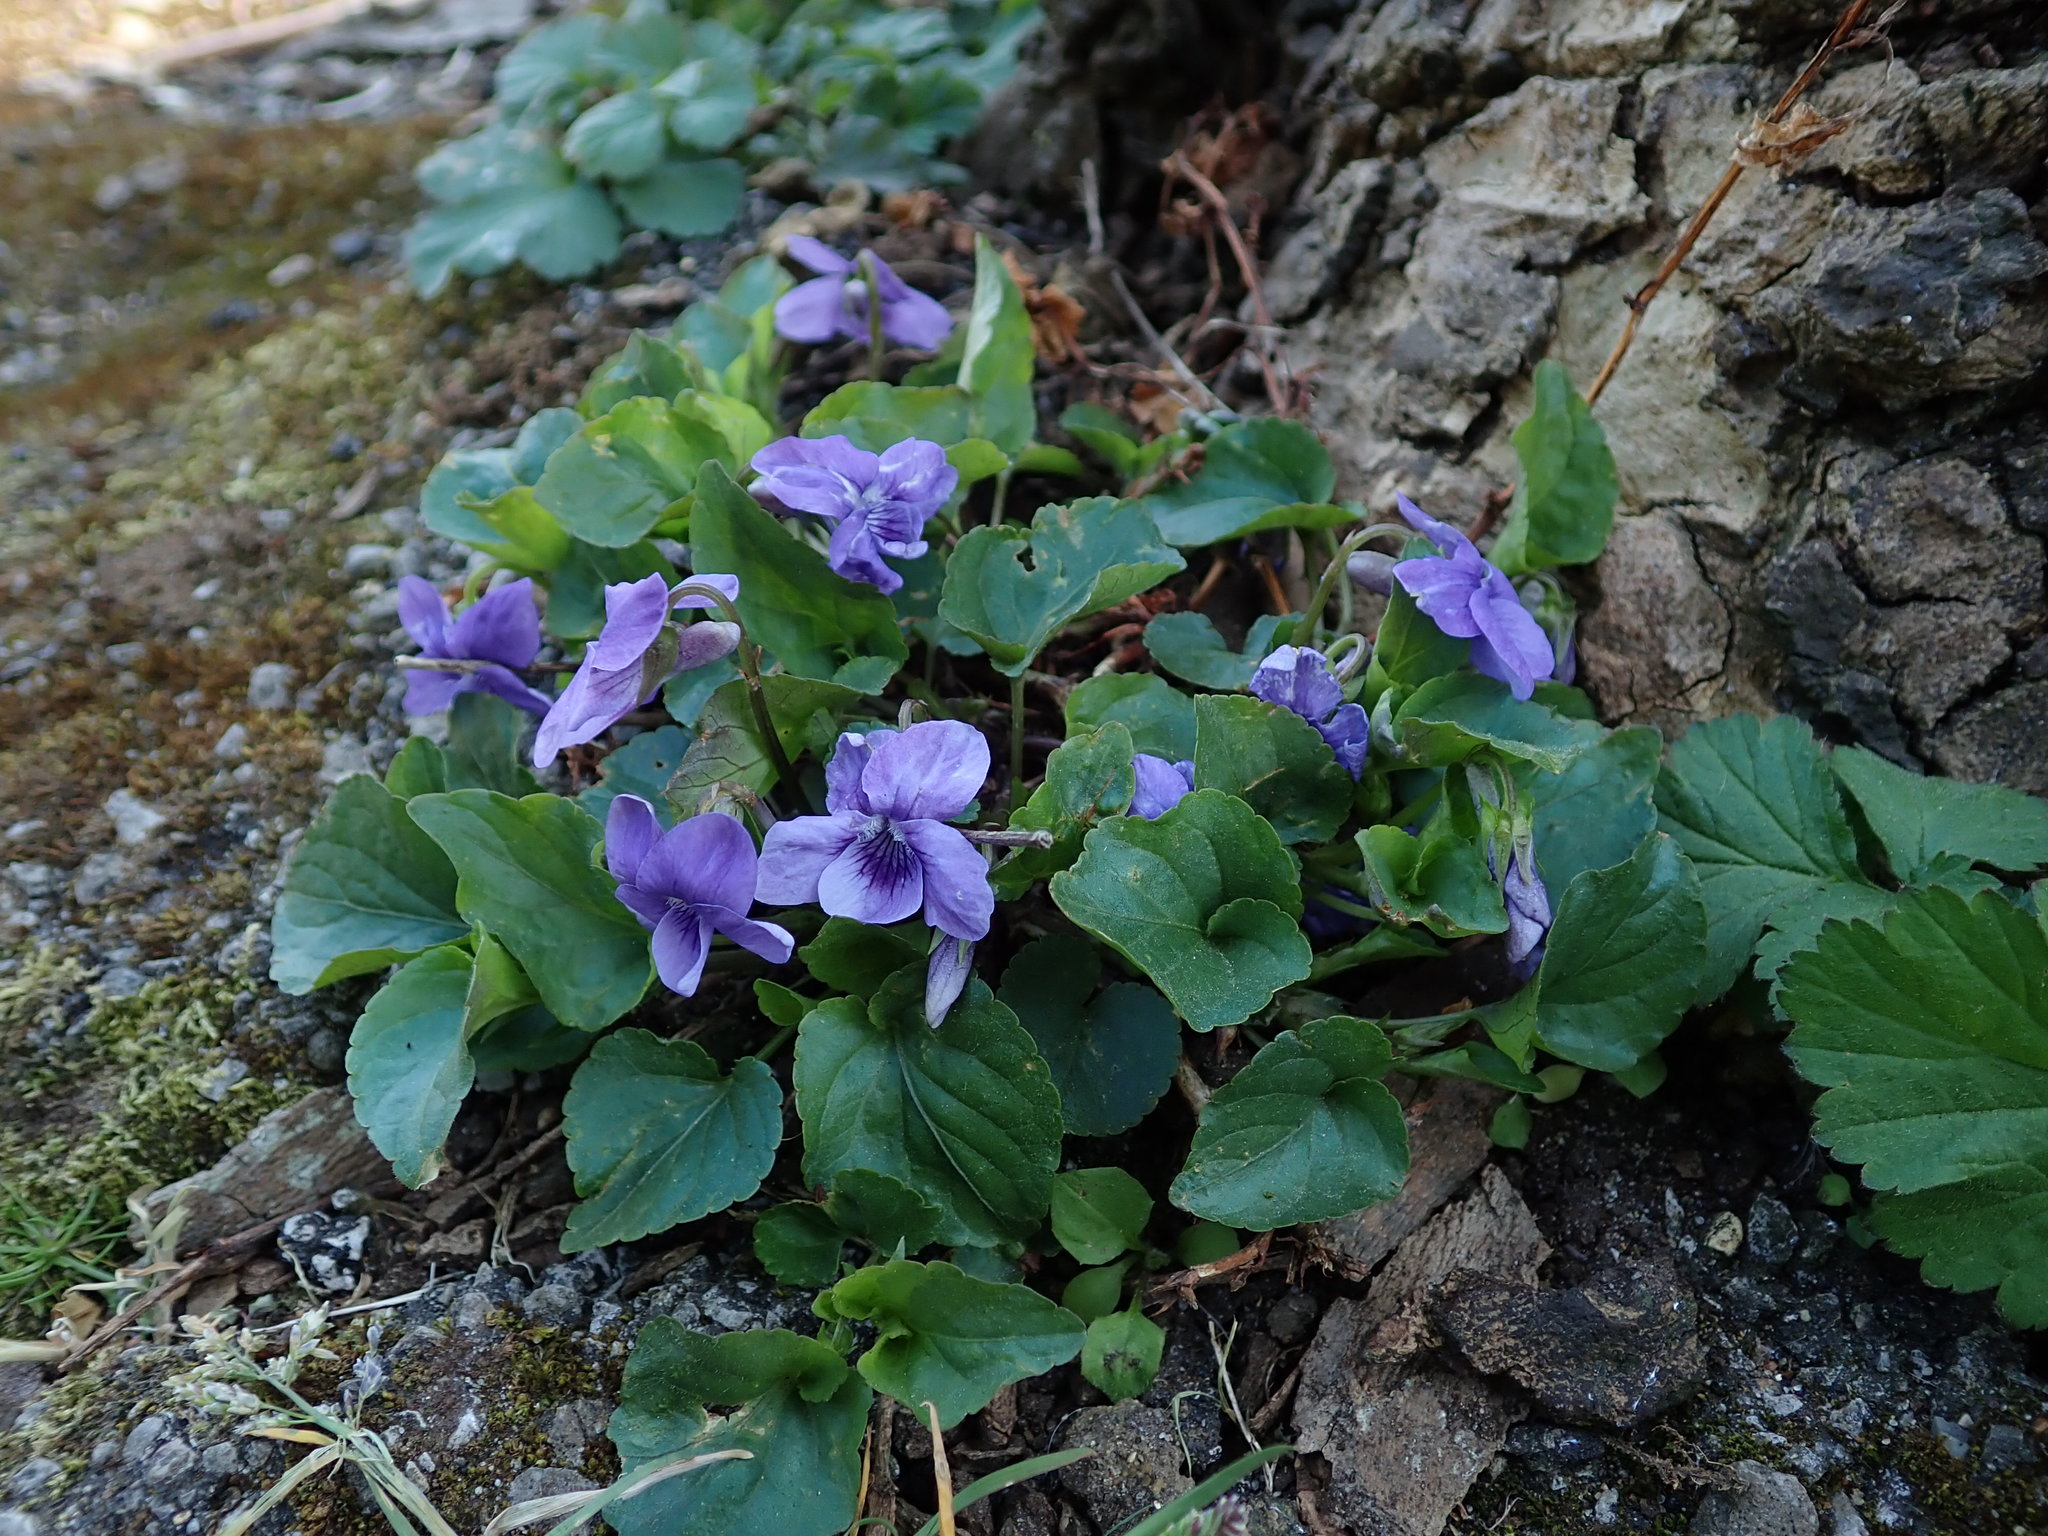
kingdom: Plantae
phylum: Tracheophyta
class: Magnoliopsida
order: Malpighiales
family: Violaceae
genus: Viola
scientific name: Viola riviniana
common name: Common dog-violet
